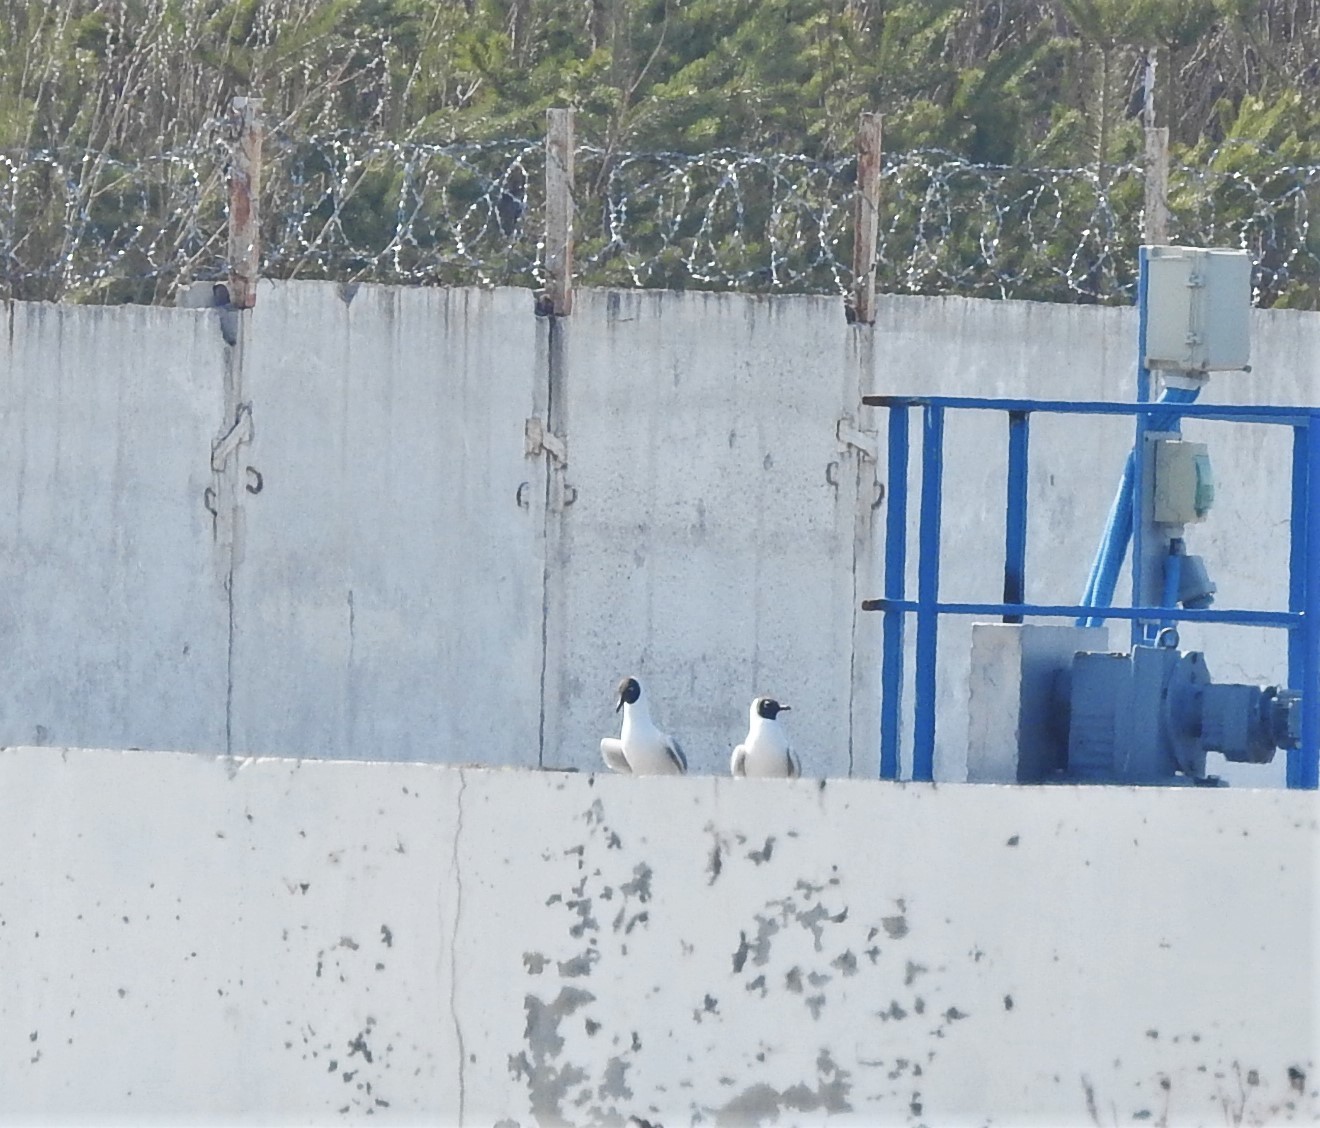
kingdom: Animalia
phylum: Chordata
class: Aves
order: Charadriiformes
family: Laridae
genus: Chroicocephalus
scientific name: Chroicocephalus ridibundus
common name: Black-headed gull
